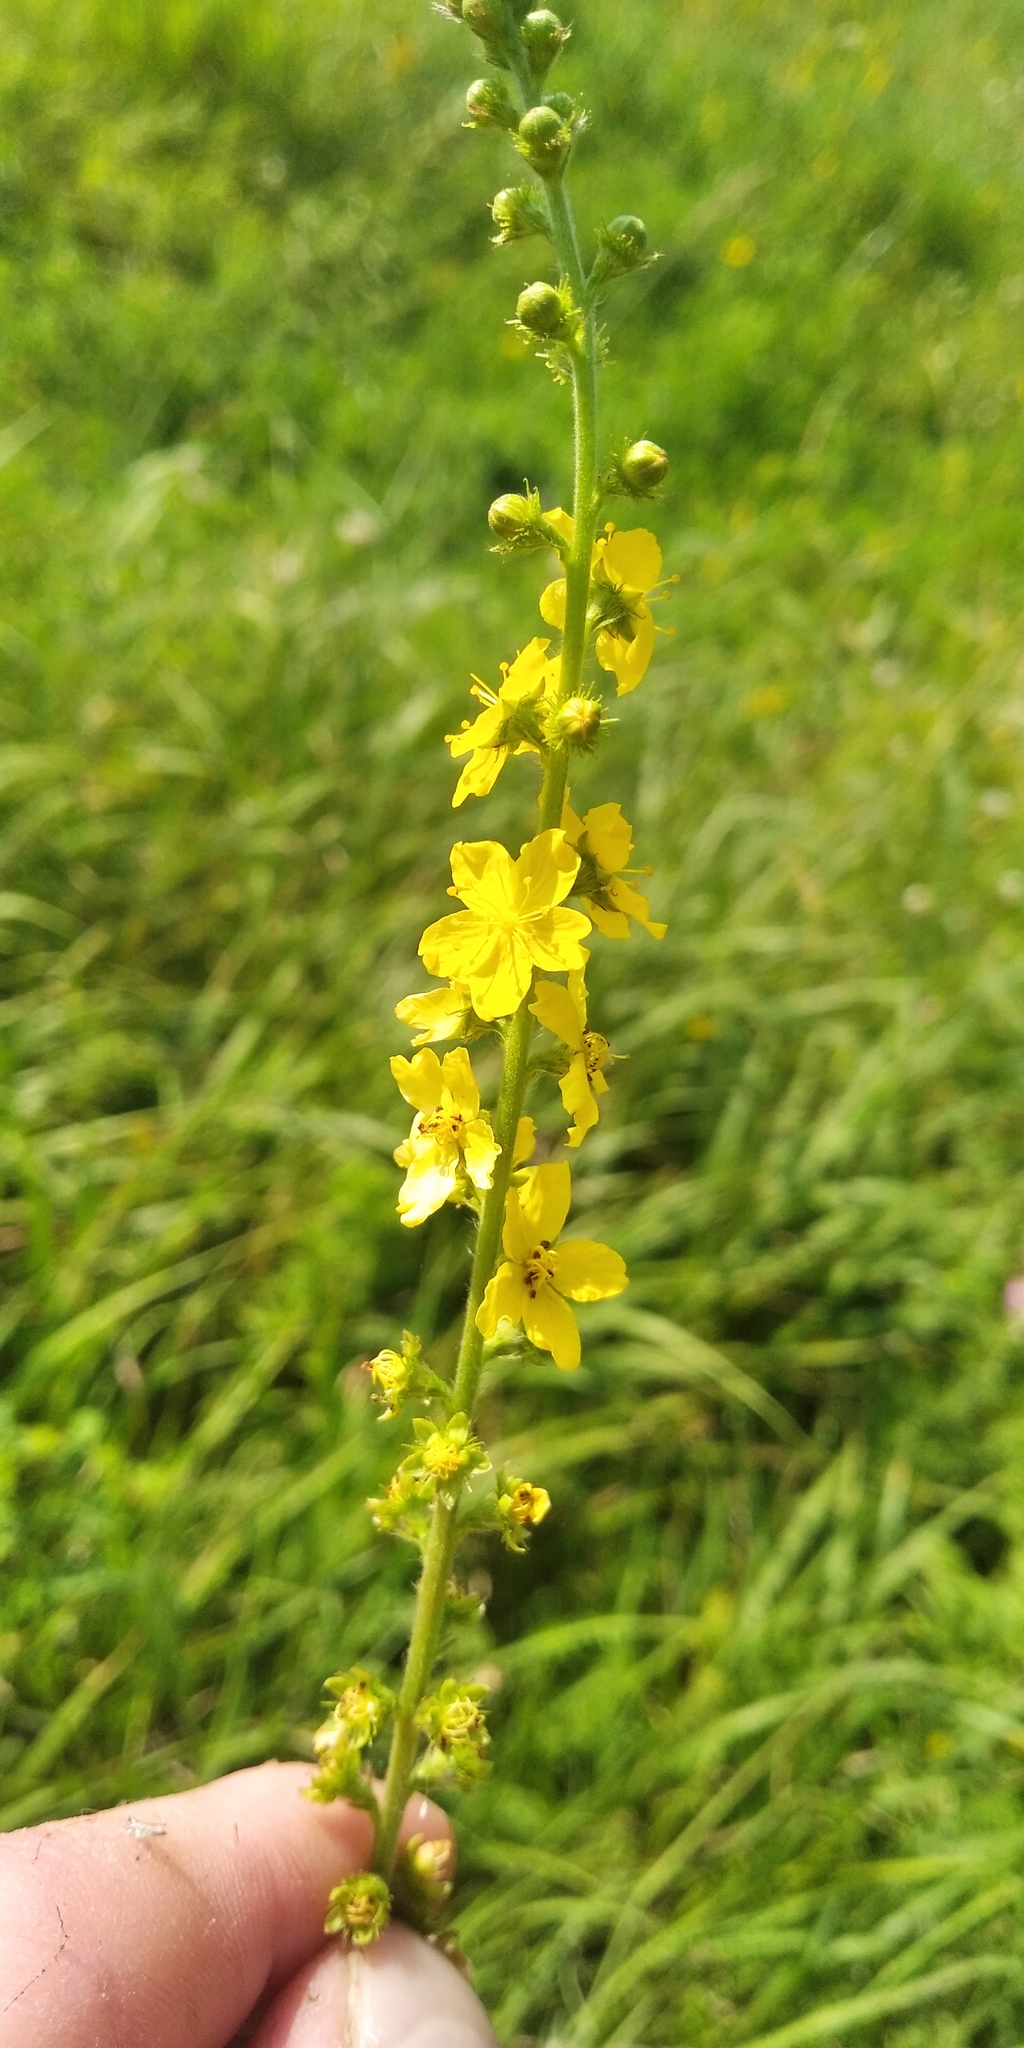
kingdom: Plantae
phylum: Tracheophyta
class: Magnoliopsida
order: Rosales
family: Rosaceae
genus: Agrimonia
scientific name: Agrimonia eupatoria
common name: Agrimony
